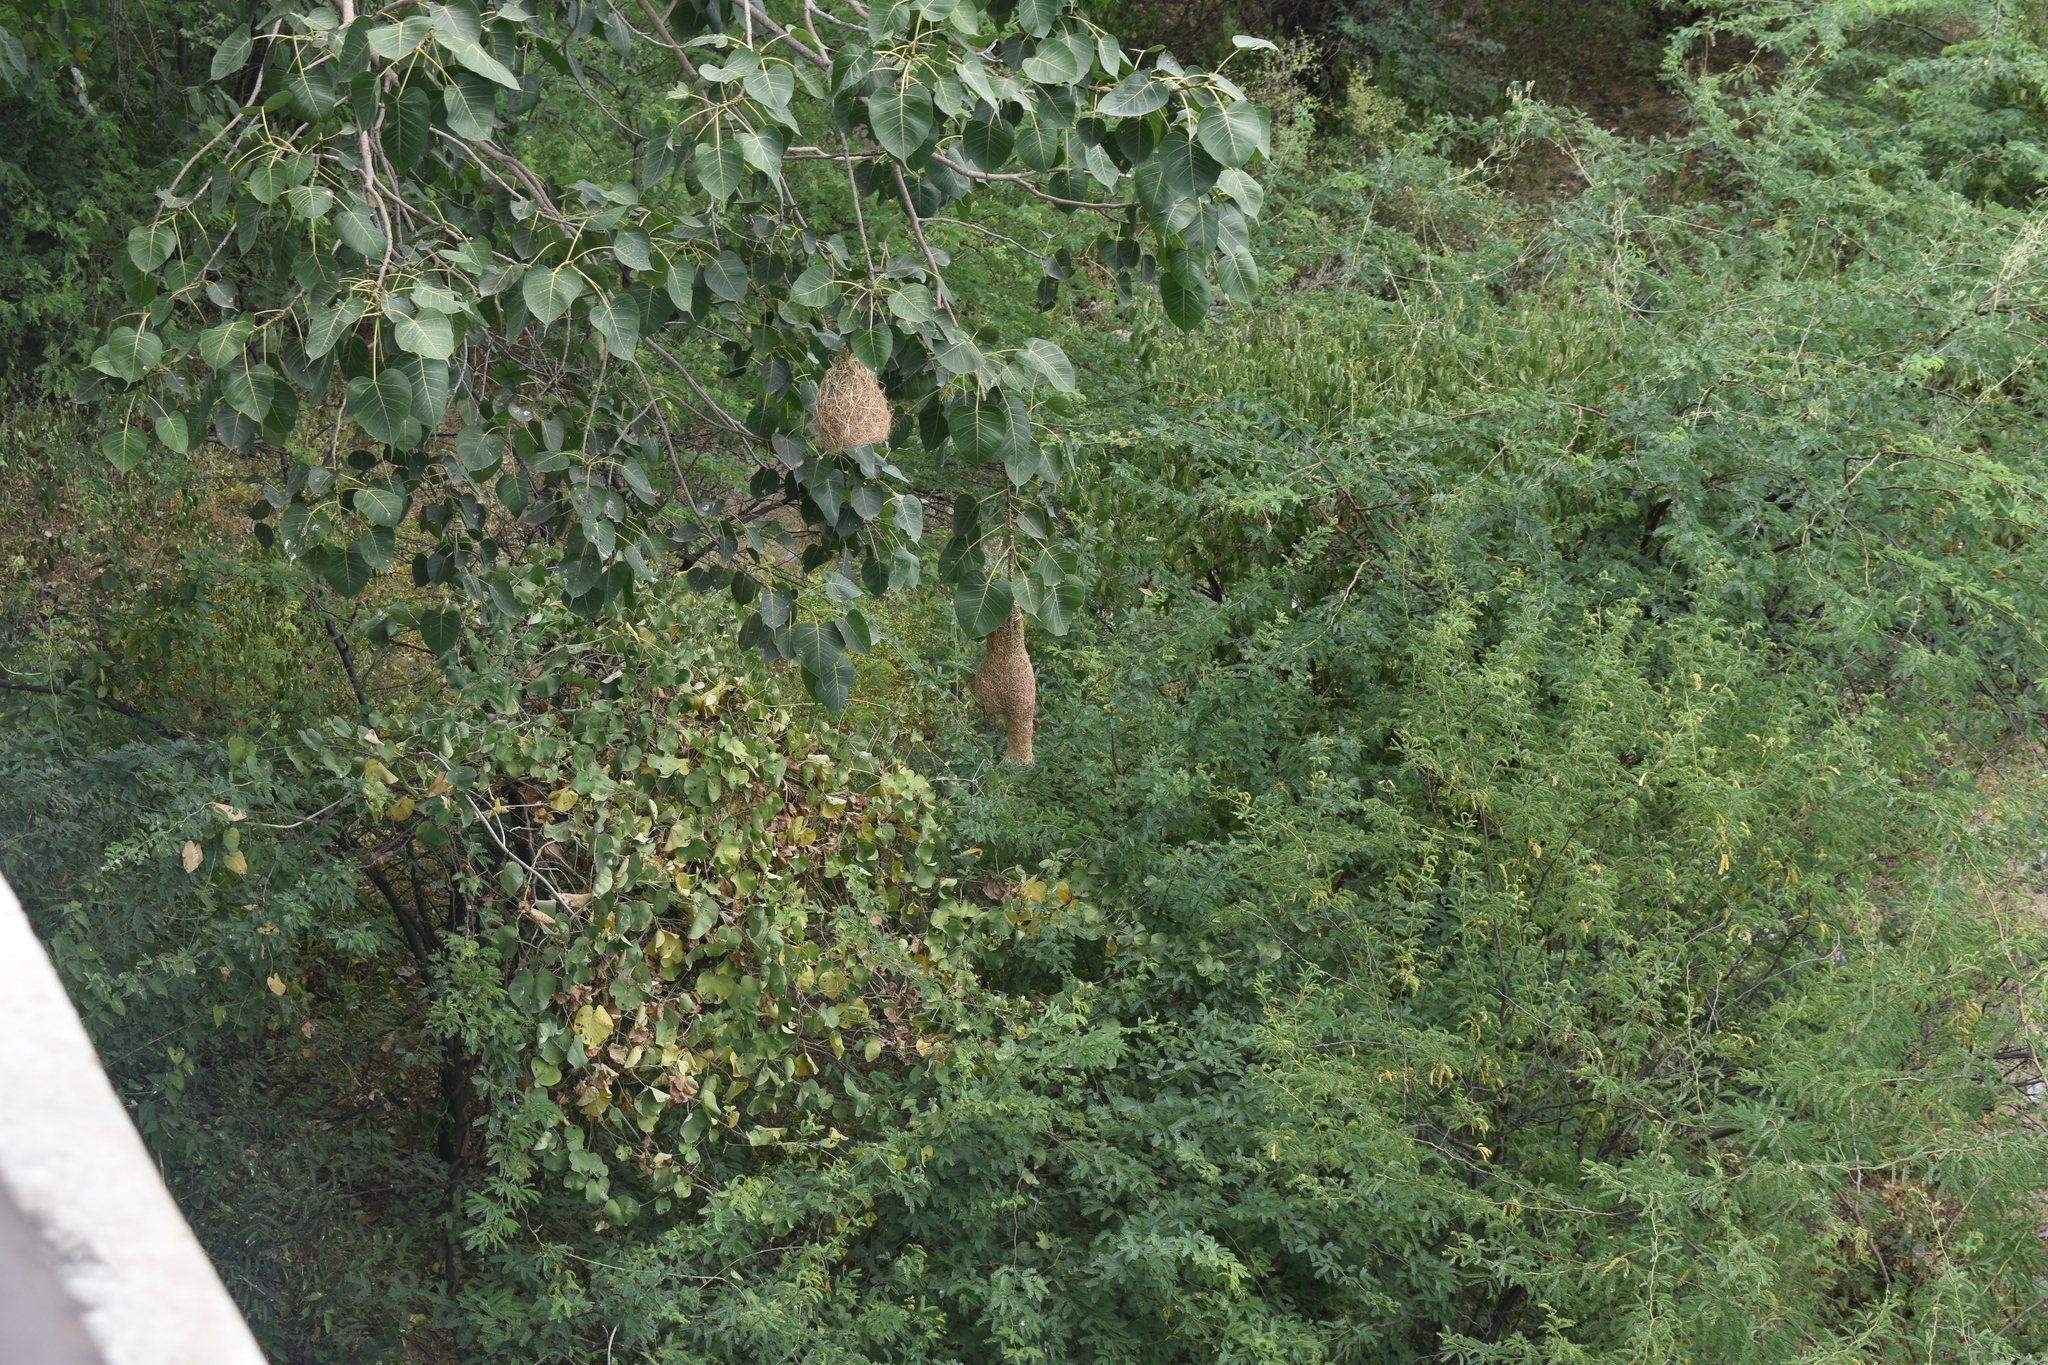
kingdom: Animalia
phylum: Chordata
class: Aves
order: Passeriformes
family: Ploceidae
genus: Ploceus
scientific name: Ploceus philippinus
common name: Baya weaver
